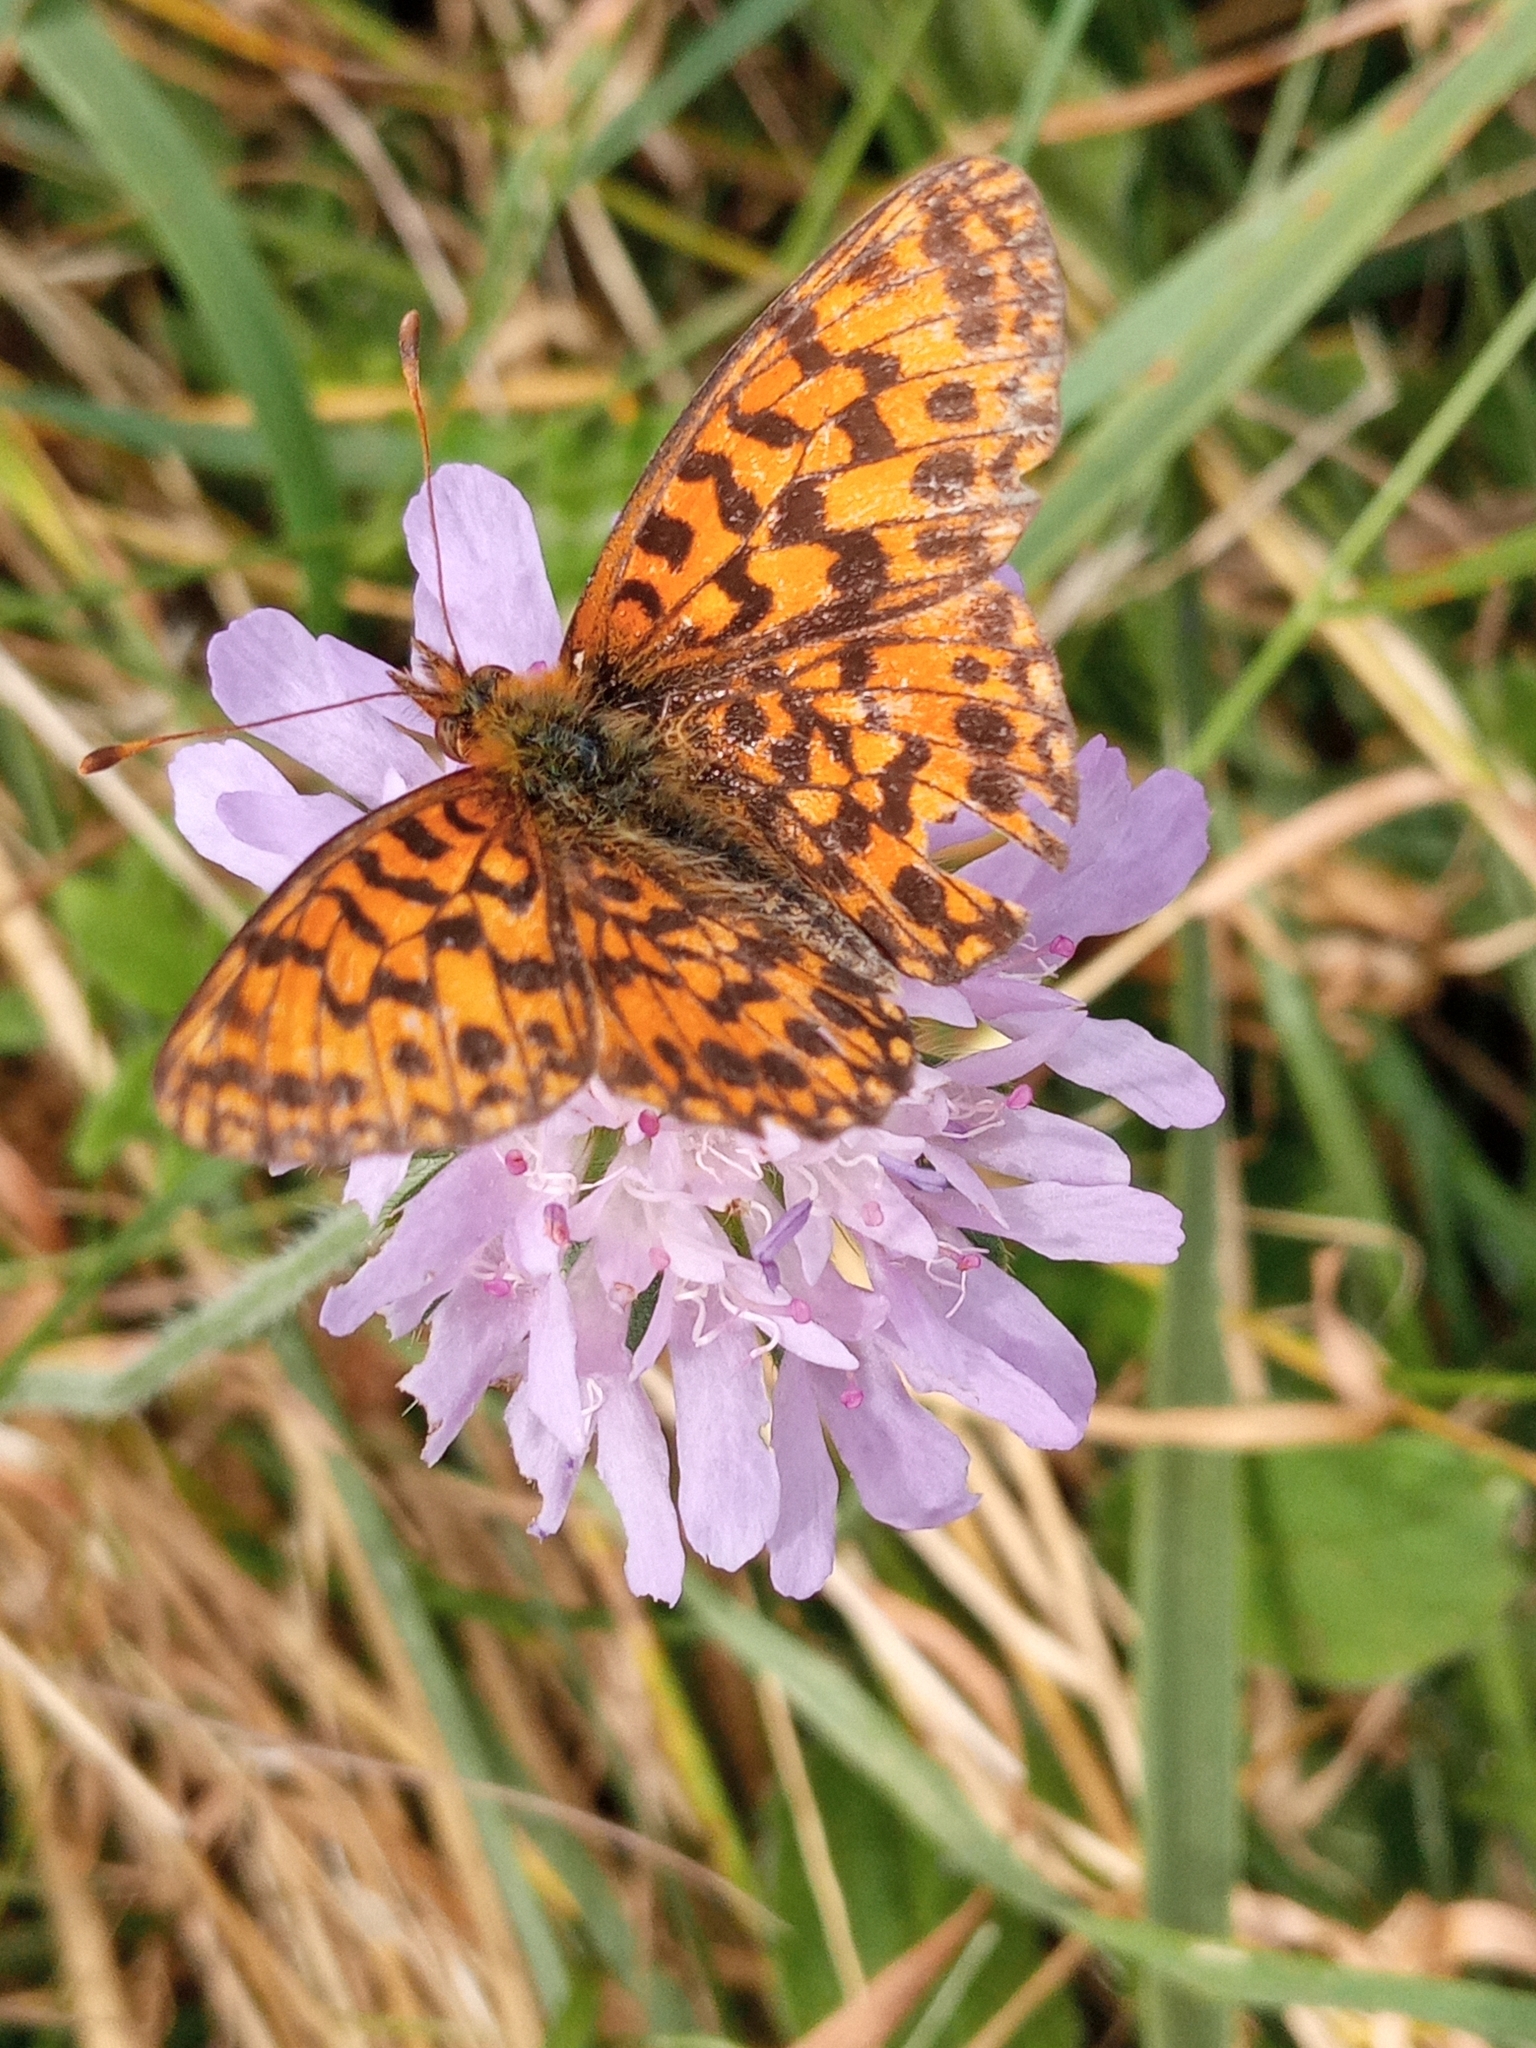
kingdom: Animalia
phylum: Arthropoda
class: Insecta
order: Lepidoptera
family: Nymphalidae
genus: Boloria
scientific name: Boloria dia
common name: Weaver's fritillary
